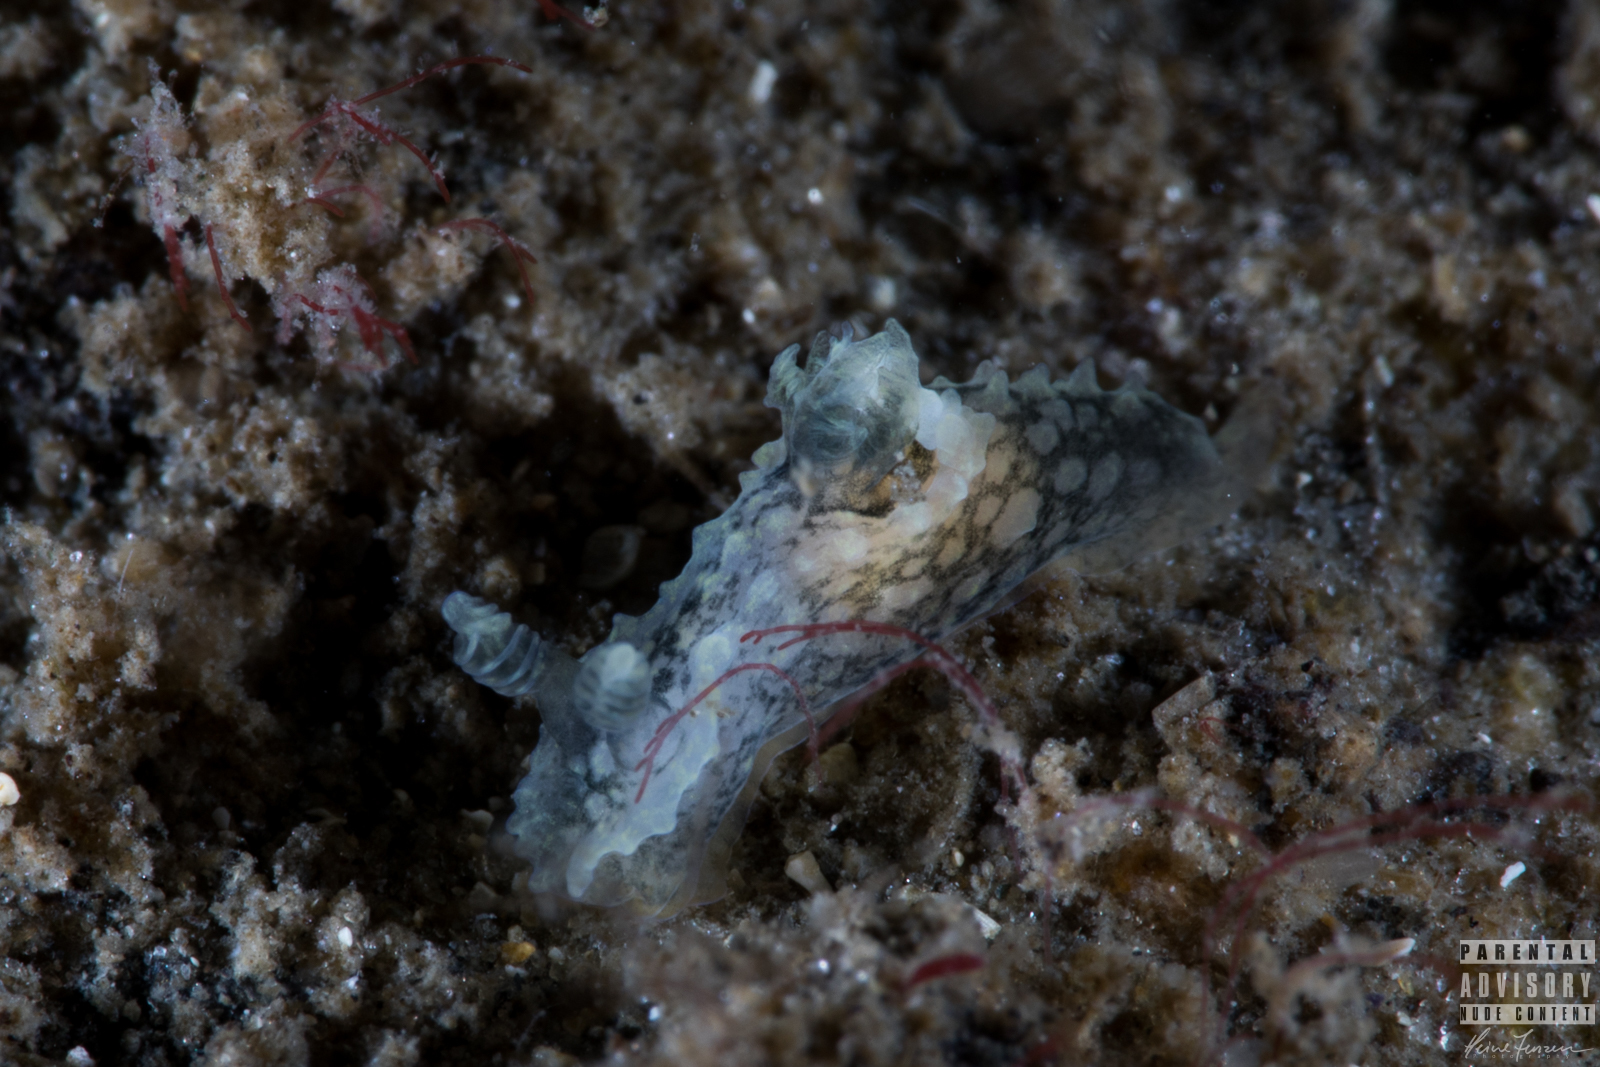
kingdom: Animalia
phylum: Mollusca
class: Gastropoda
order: Nudibranchia
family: Polyceridae
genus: Palio
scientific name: Palio nothus
